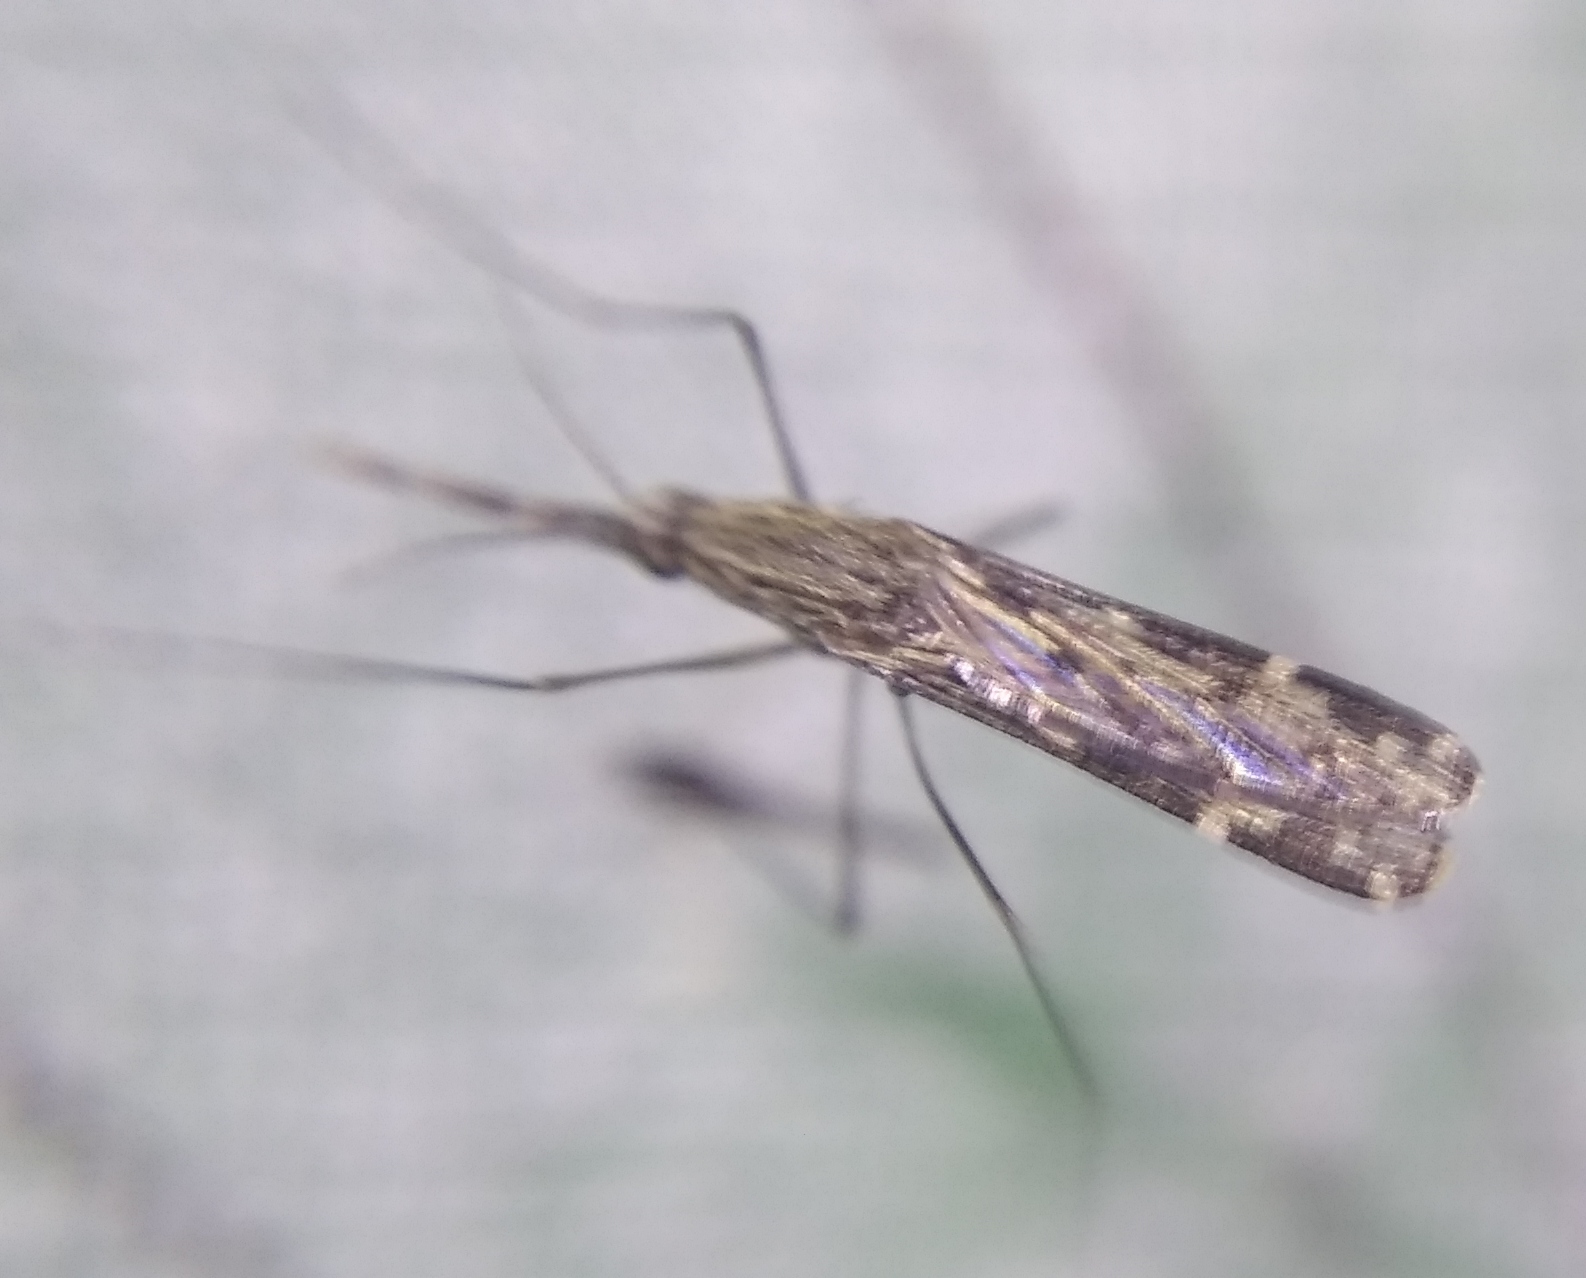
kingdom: Animalia
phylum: Arthropoda
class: Insecta
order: Diptera
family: Culicidae
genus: Anopheles
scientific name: Anopheles hyrcanus
